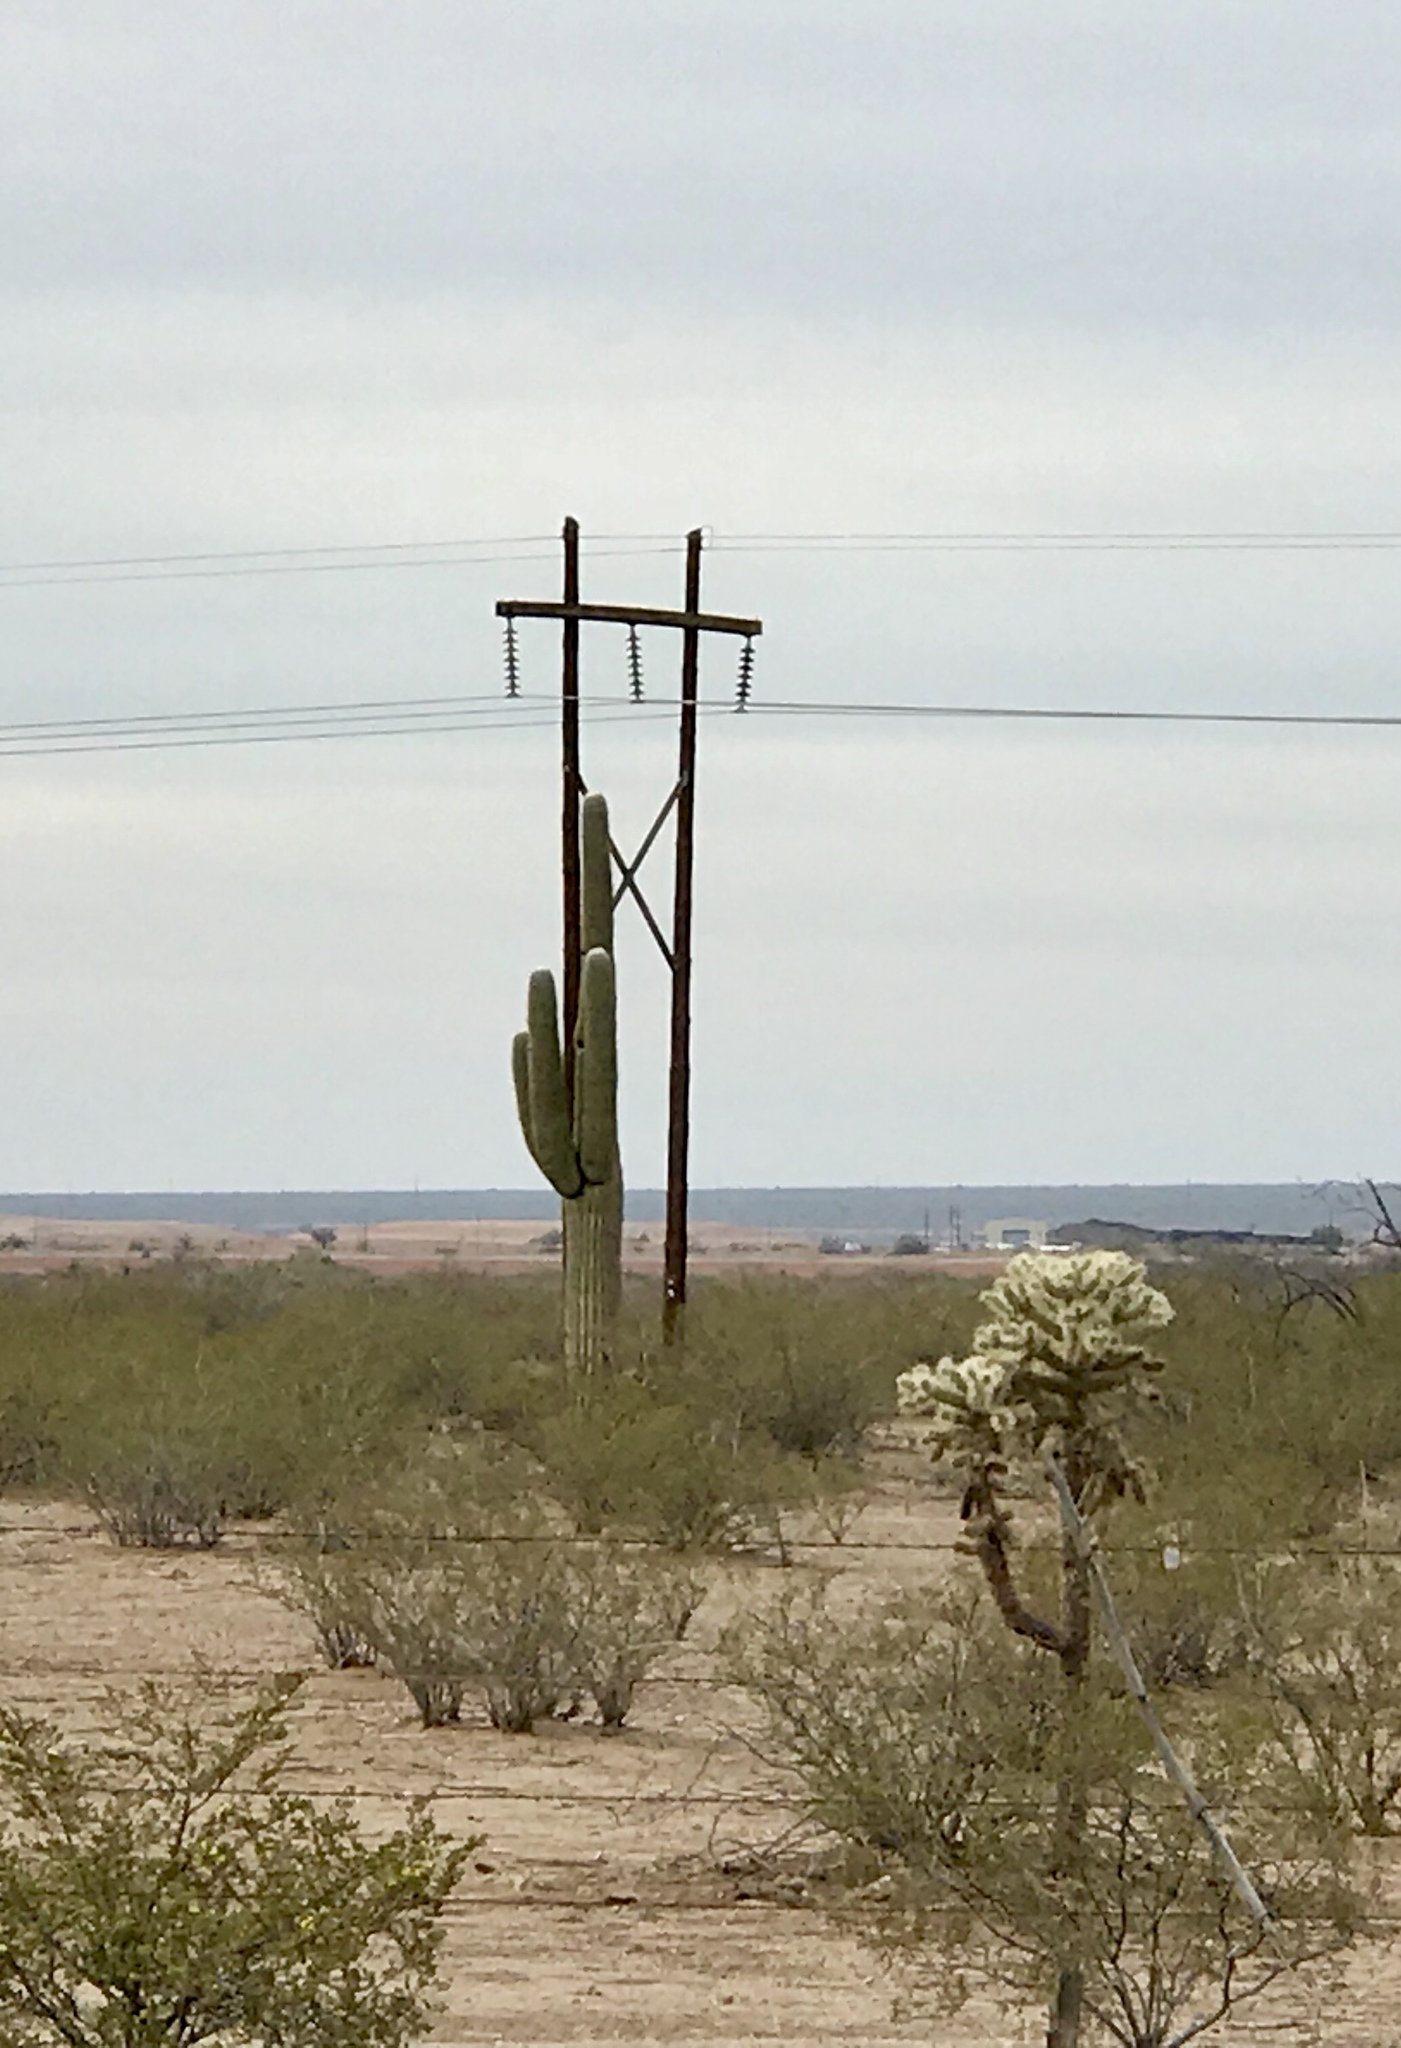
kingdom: Plantae
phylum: Tracheophyta
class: Magnoliopsida
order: Caryophyllales
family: Cactaceae
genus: Carnegiea
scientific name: Carnegiea gigantea
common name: Saguaro
